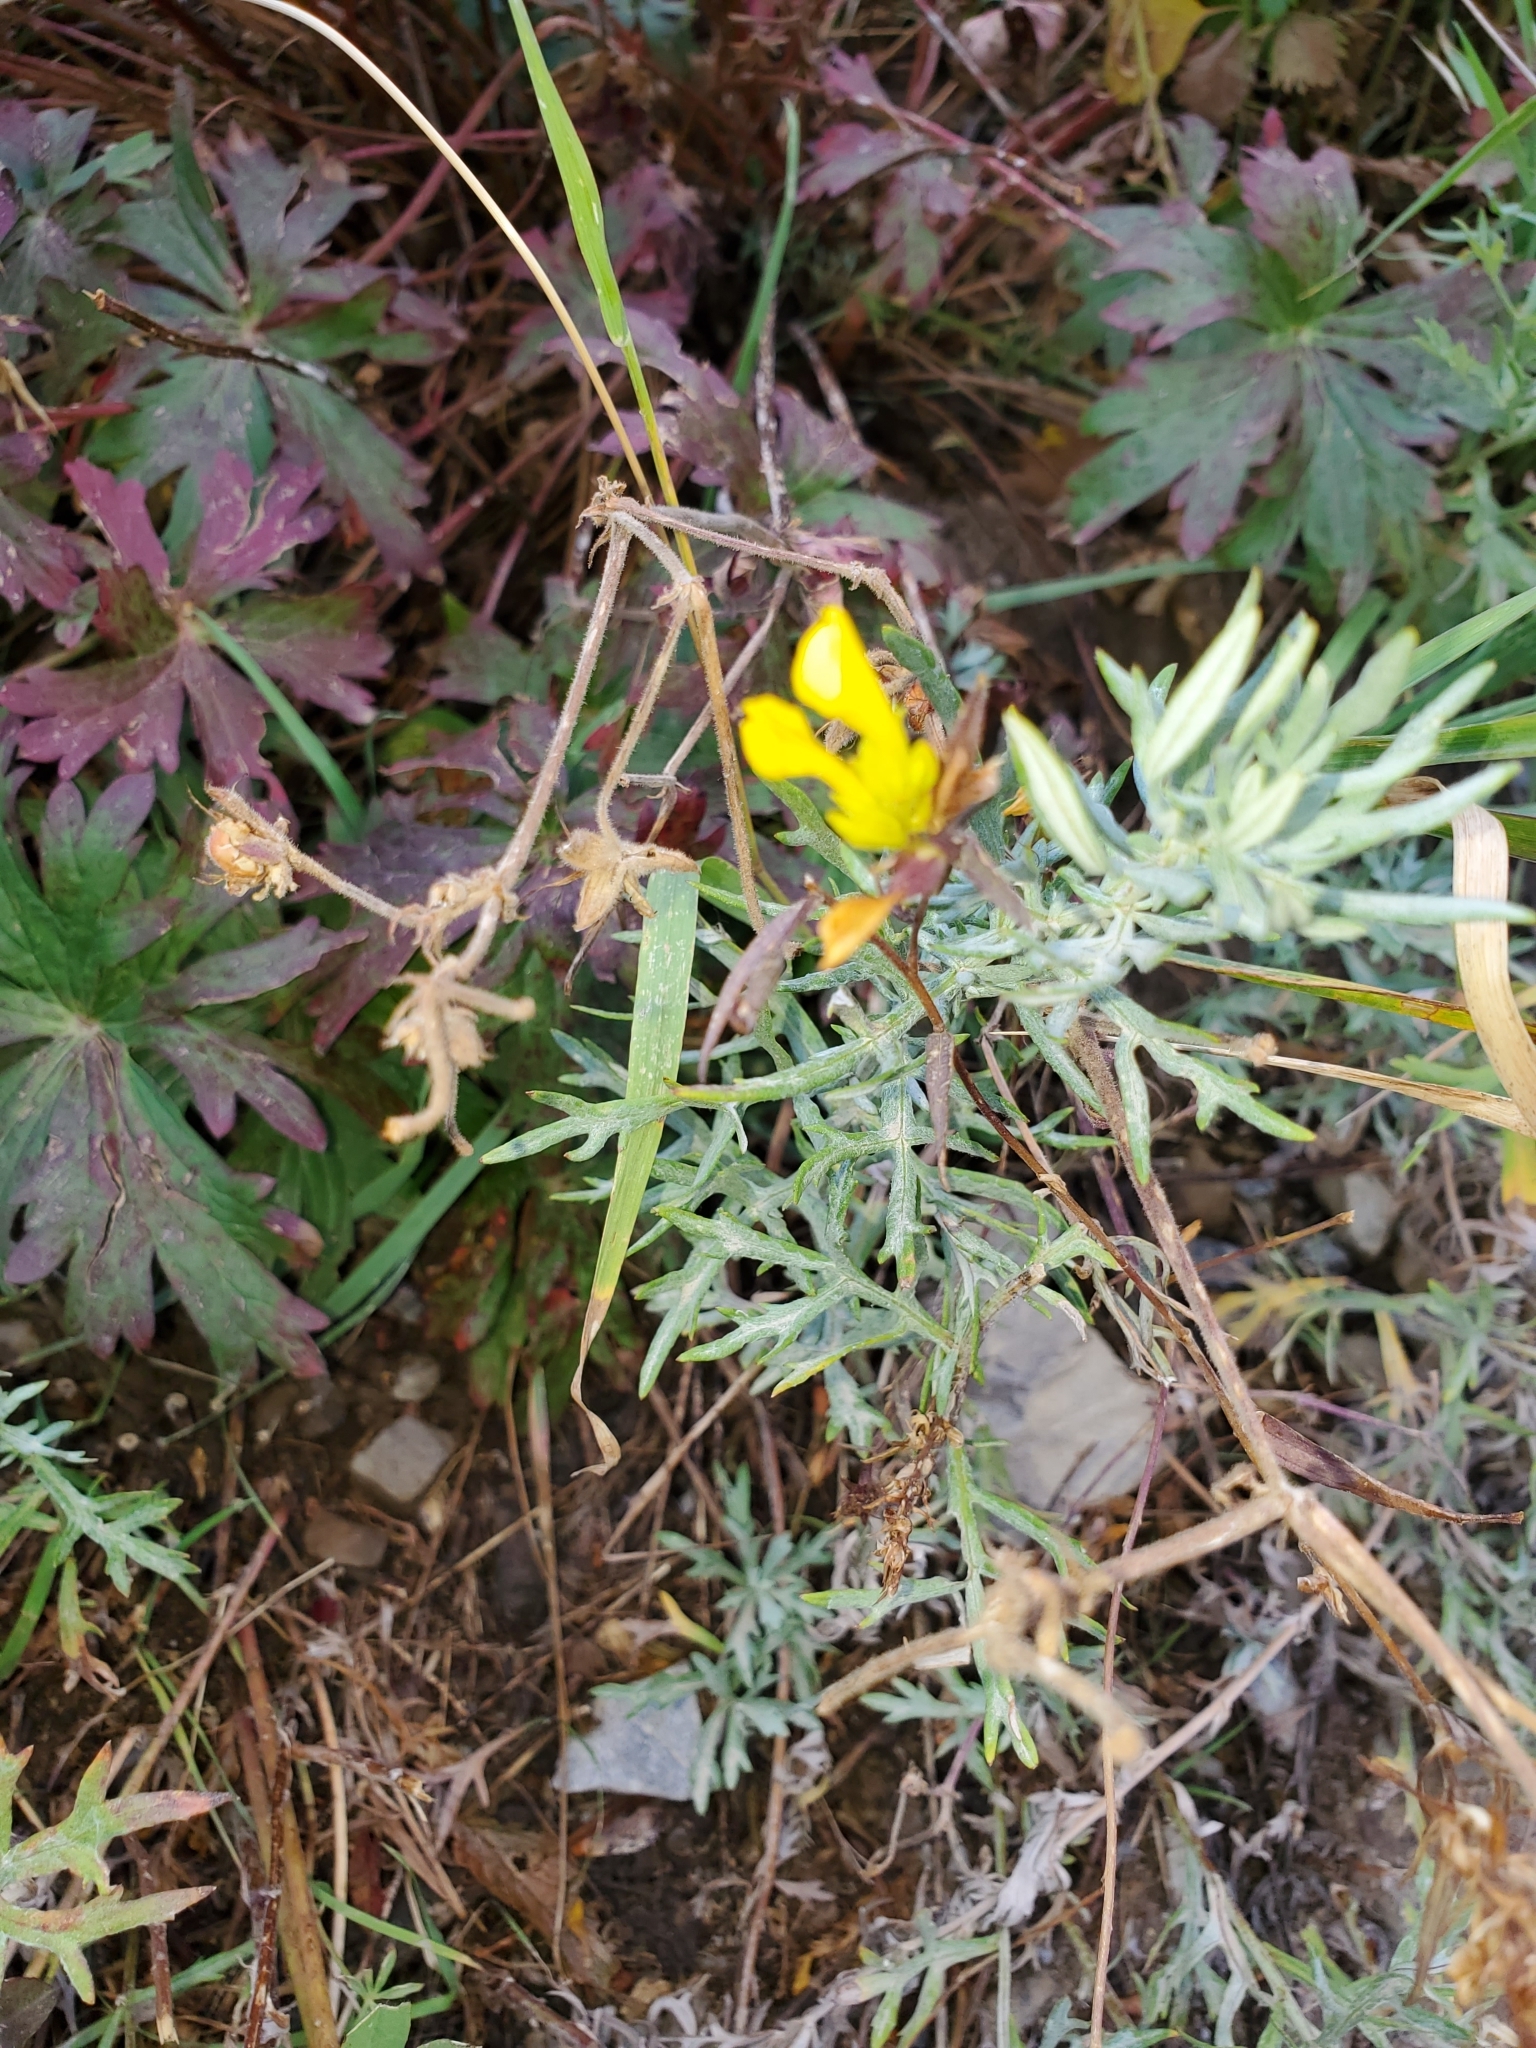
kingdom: Plantae
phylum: Tracheophyta
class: Magnoliopsida
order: Lamiales
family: Orobanchaceae
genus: Orthocarpus
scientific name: Orthocarpus luteus
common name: Golden-tongue owl's-clover
